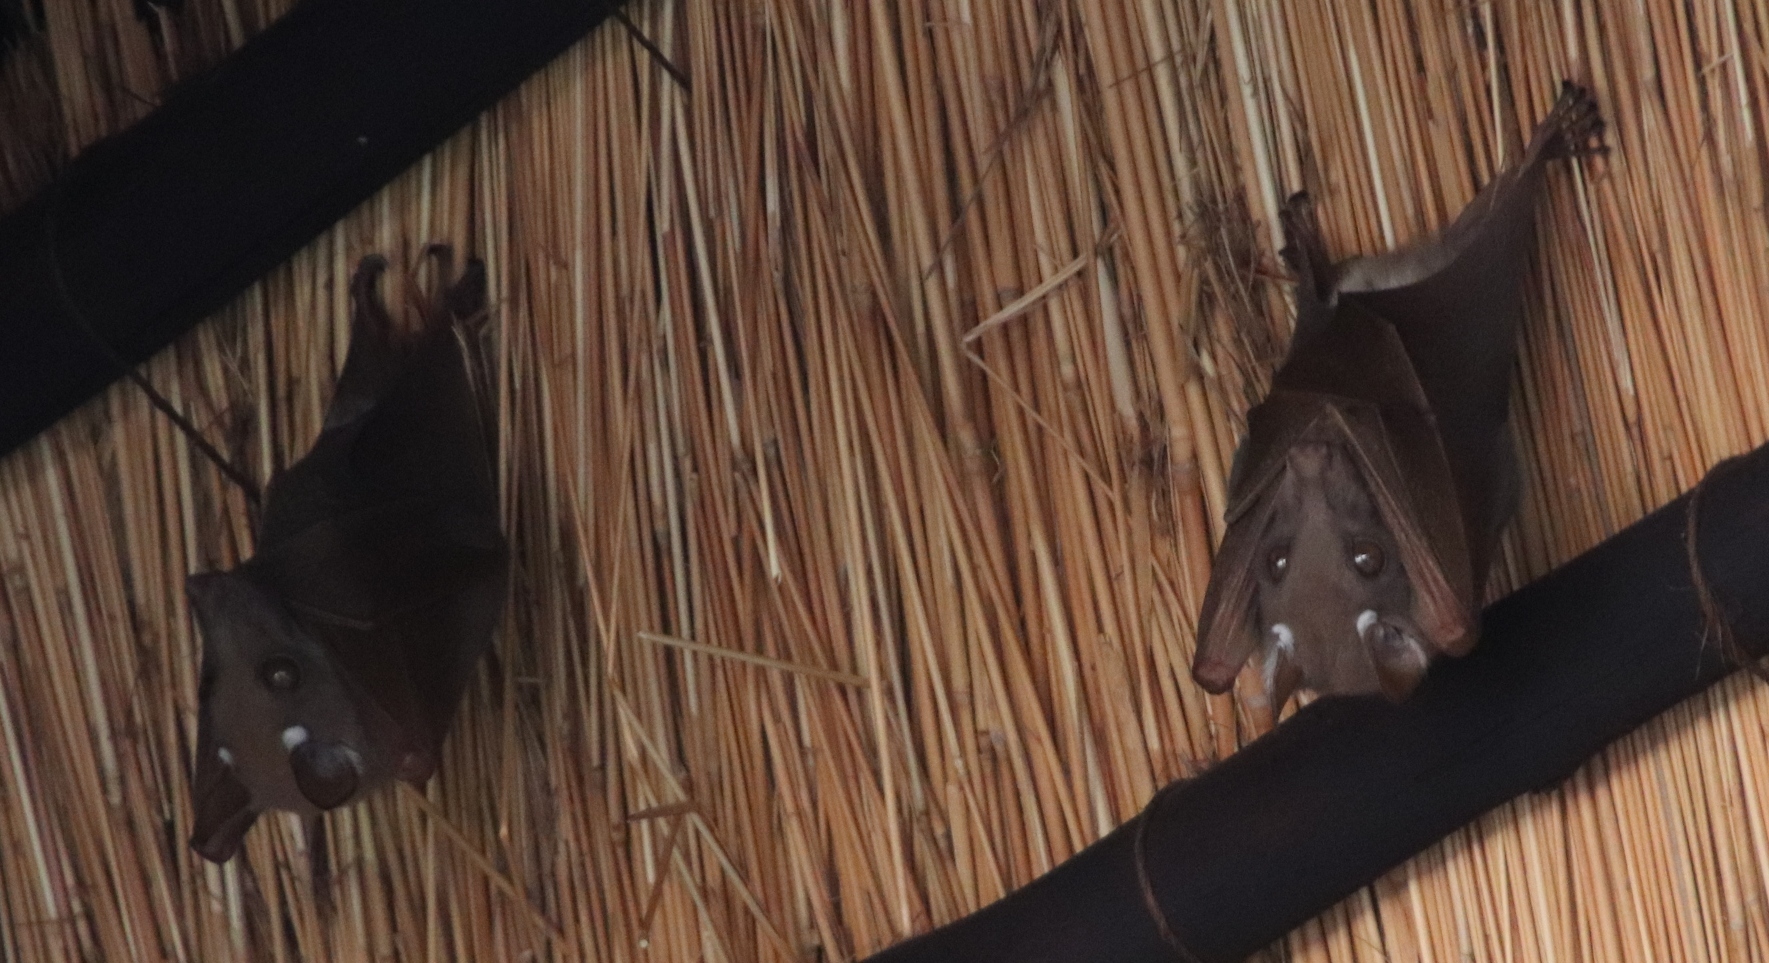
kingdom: Animalia
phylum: Chordata
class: Mammalia
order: Chiroptera
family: Pteropodidae
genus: Epomophorus
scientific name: Epomophorus
